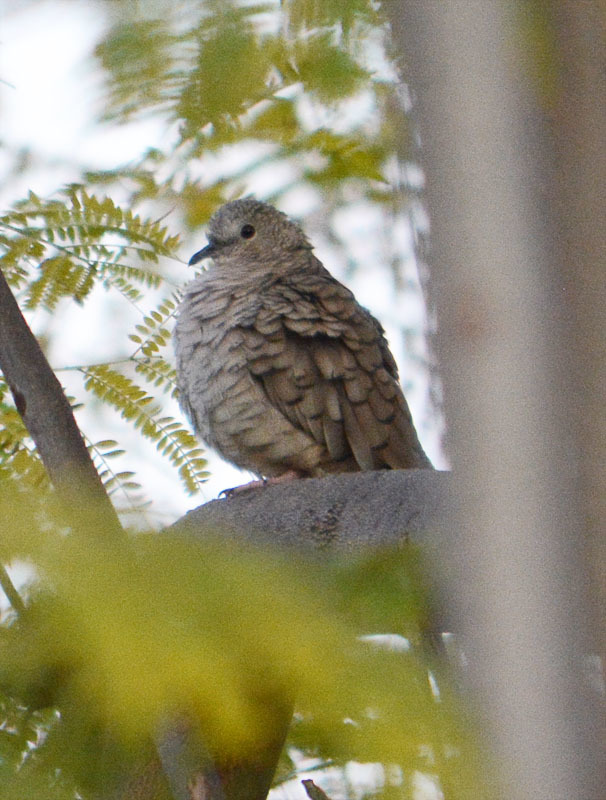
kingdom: Animalia
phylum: Chordata
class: Aves
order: Columbiformes
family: Columbidae
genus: Columbina
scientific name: Columbina inca
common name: Inca dove
